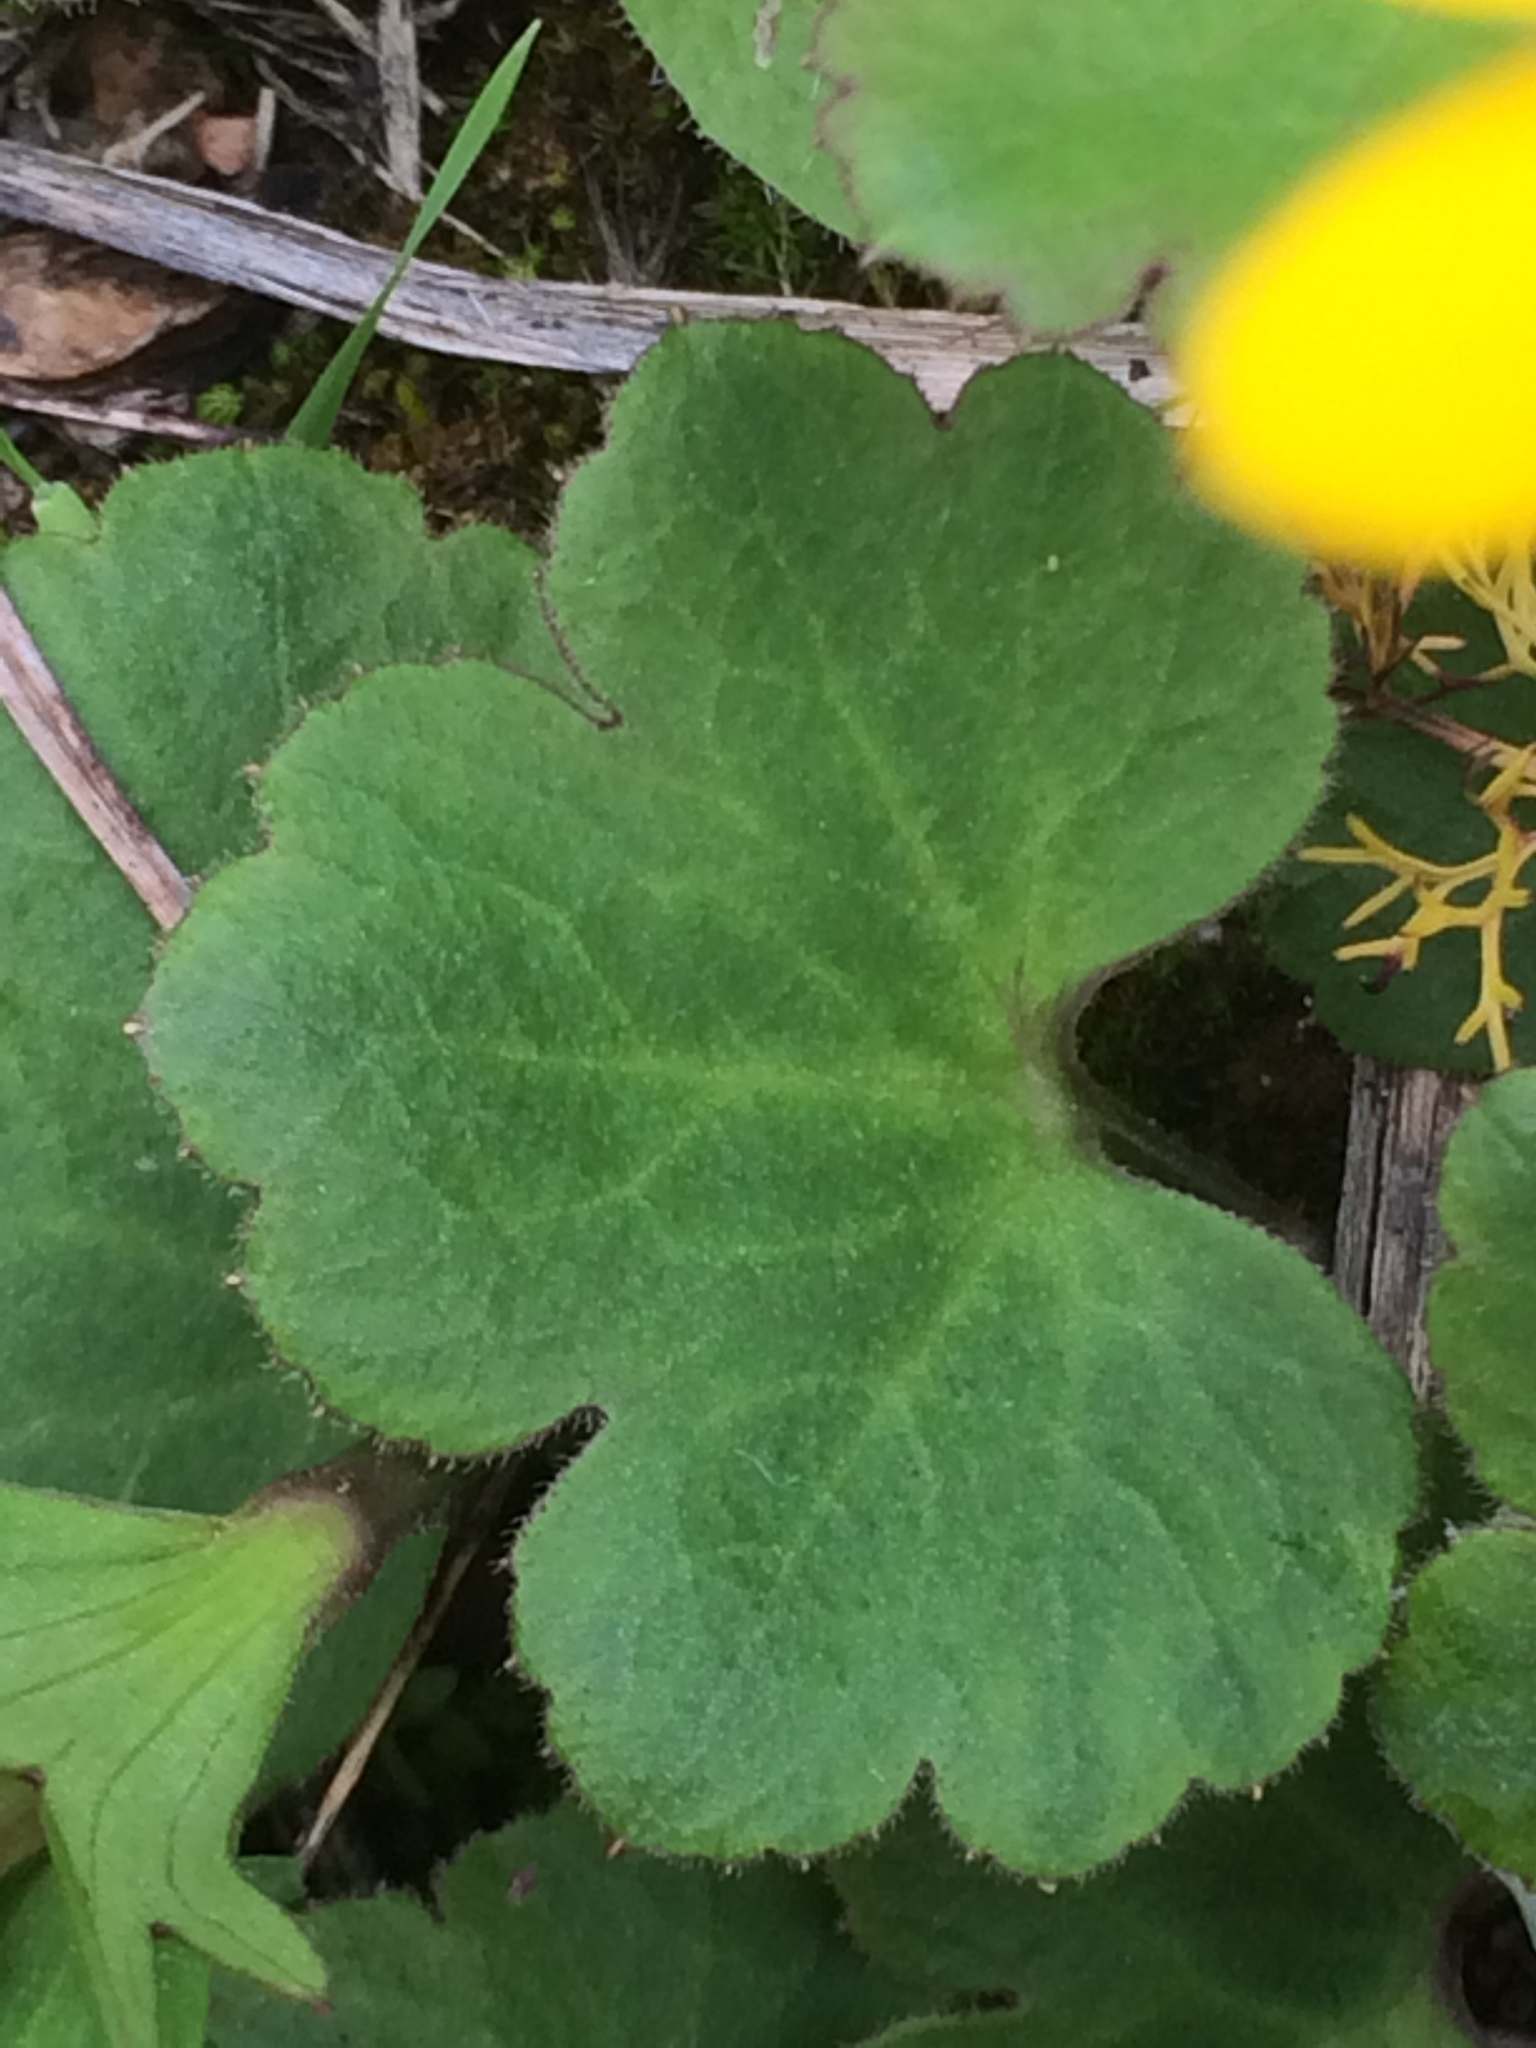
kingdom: Plantae
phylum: Tracheophyta
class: Magnoliopsida
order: Ranunculales
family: Ranunculaceae
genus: Anemone
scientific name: Anemone palmata
